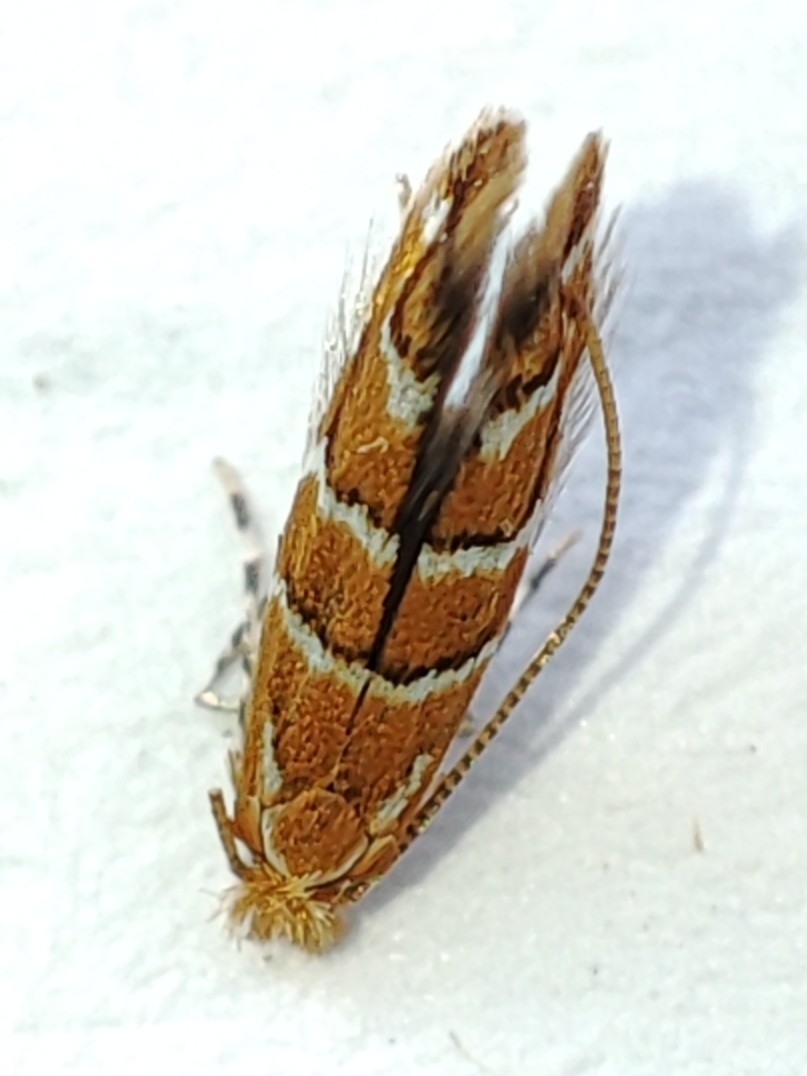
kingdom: Animalia
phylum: Arthropoda
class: Insecta
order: Lepidoptera
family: Gracillariidae
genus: Cameraria
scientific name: Cameraria ohridella
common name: Horse-chestnut leaf-miner
